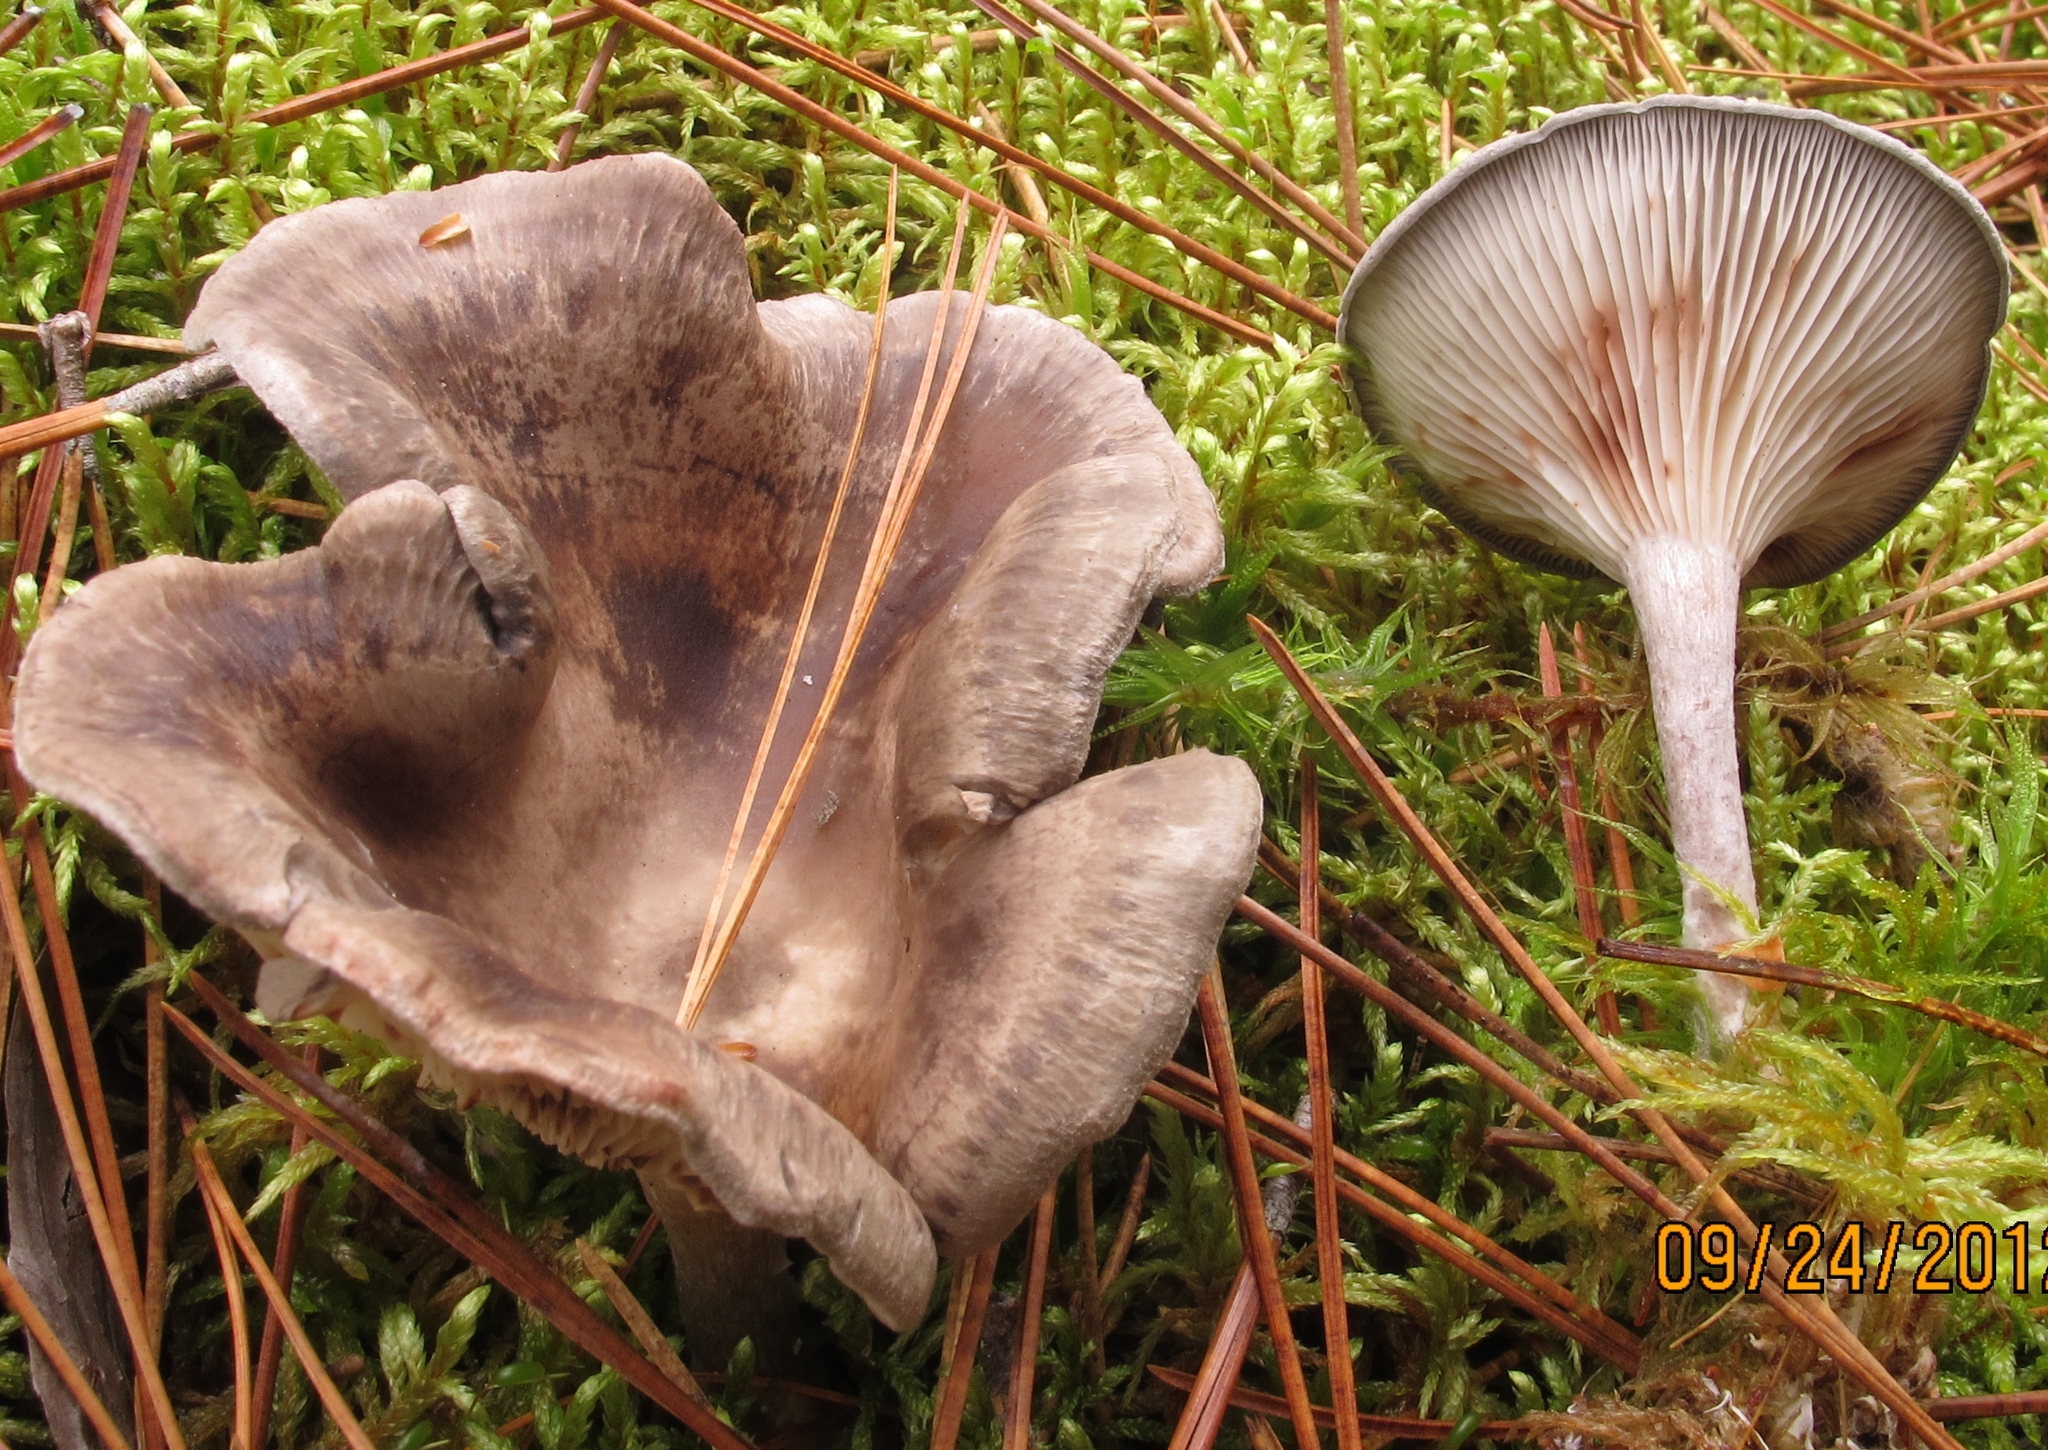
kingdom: Fungi
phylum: Basidiomycota
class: Agaricomycetes
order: Agaricales
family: Hygrophoraceae
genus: Cantharellula
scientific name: Cantharellula umbonata
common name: The humpback
